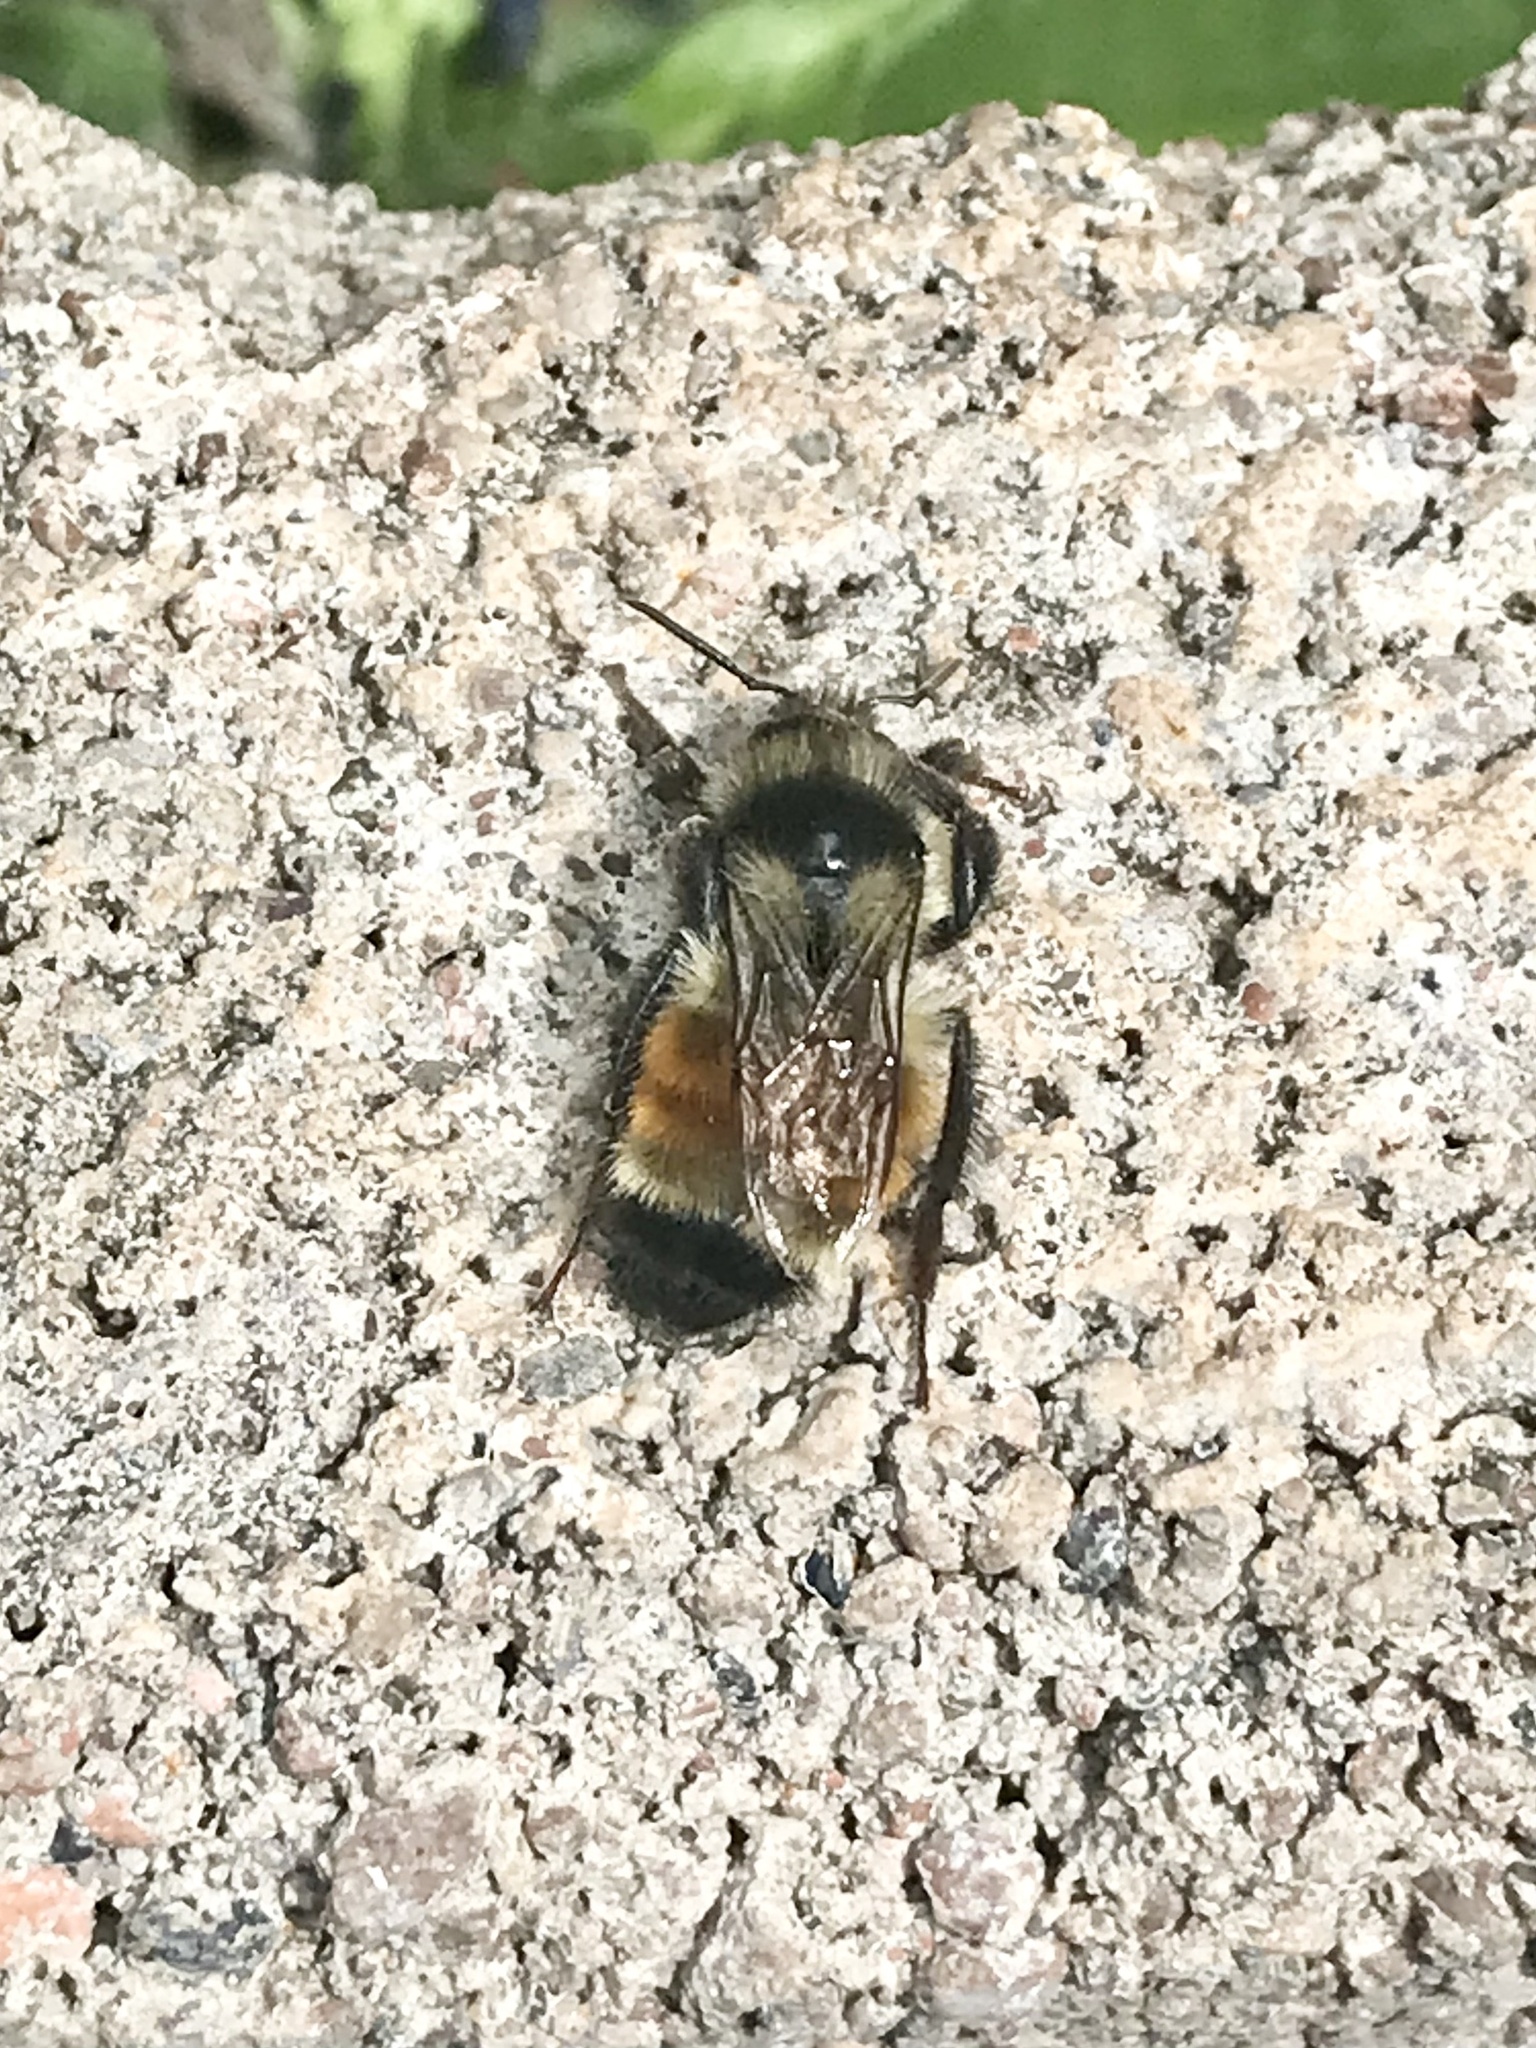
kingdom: Animalia
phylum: Arthropoda
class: Insecta
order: Hymenoptera
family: Apidae
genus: Bombus
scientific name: Bombus ternarius
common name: Tri-colored bumble bee
